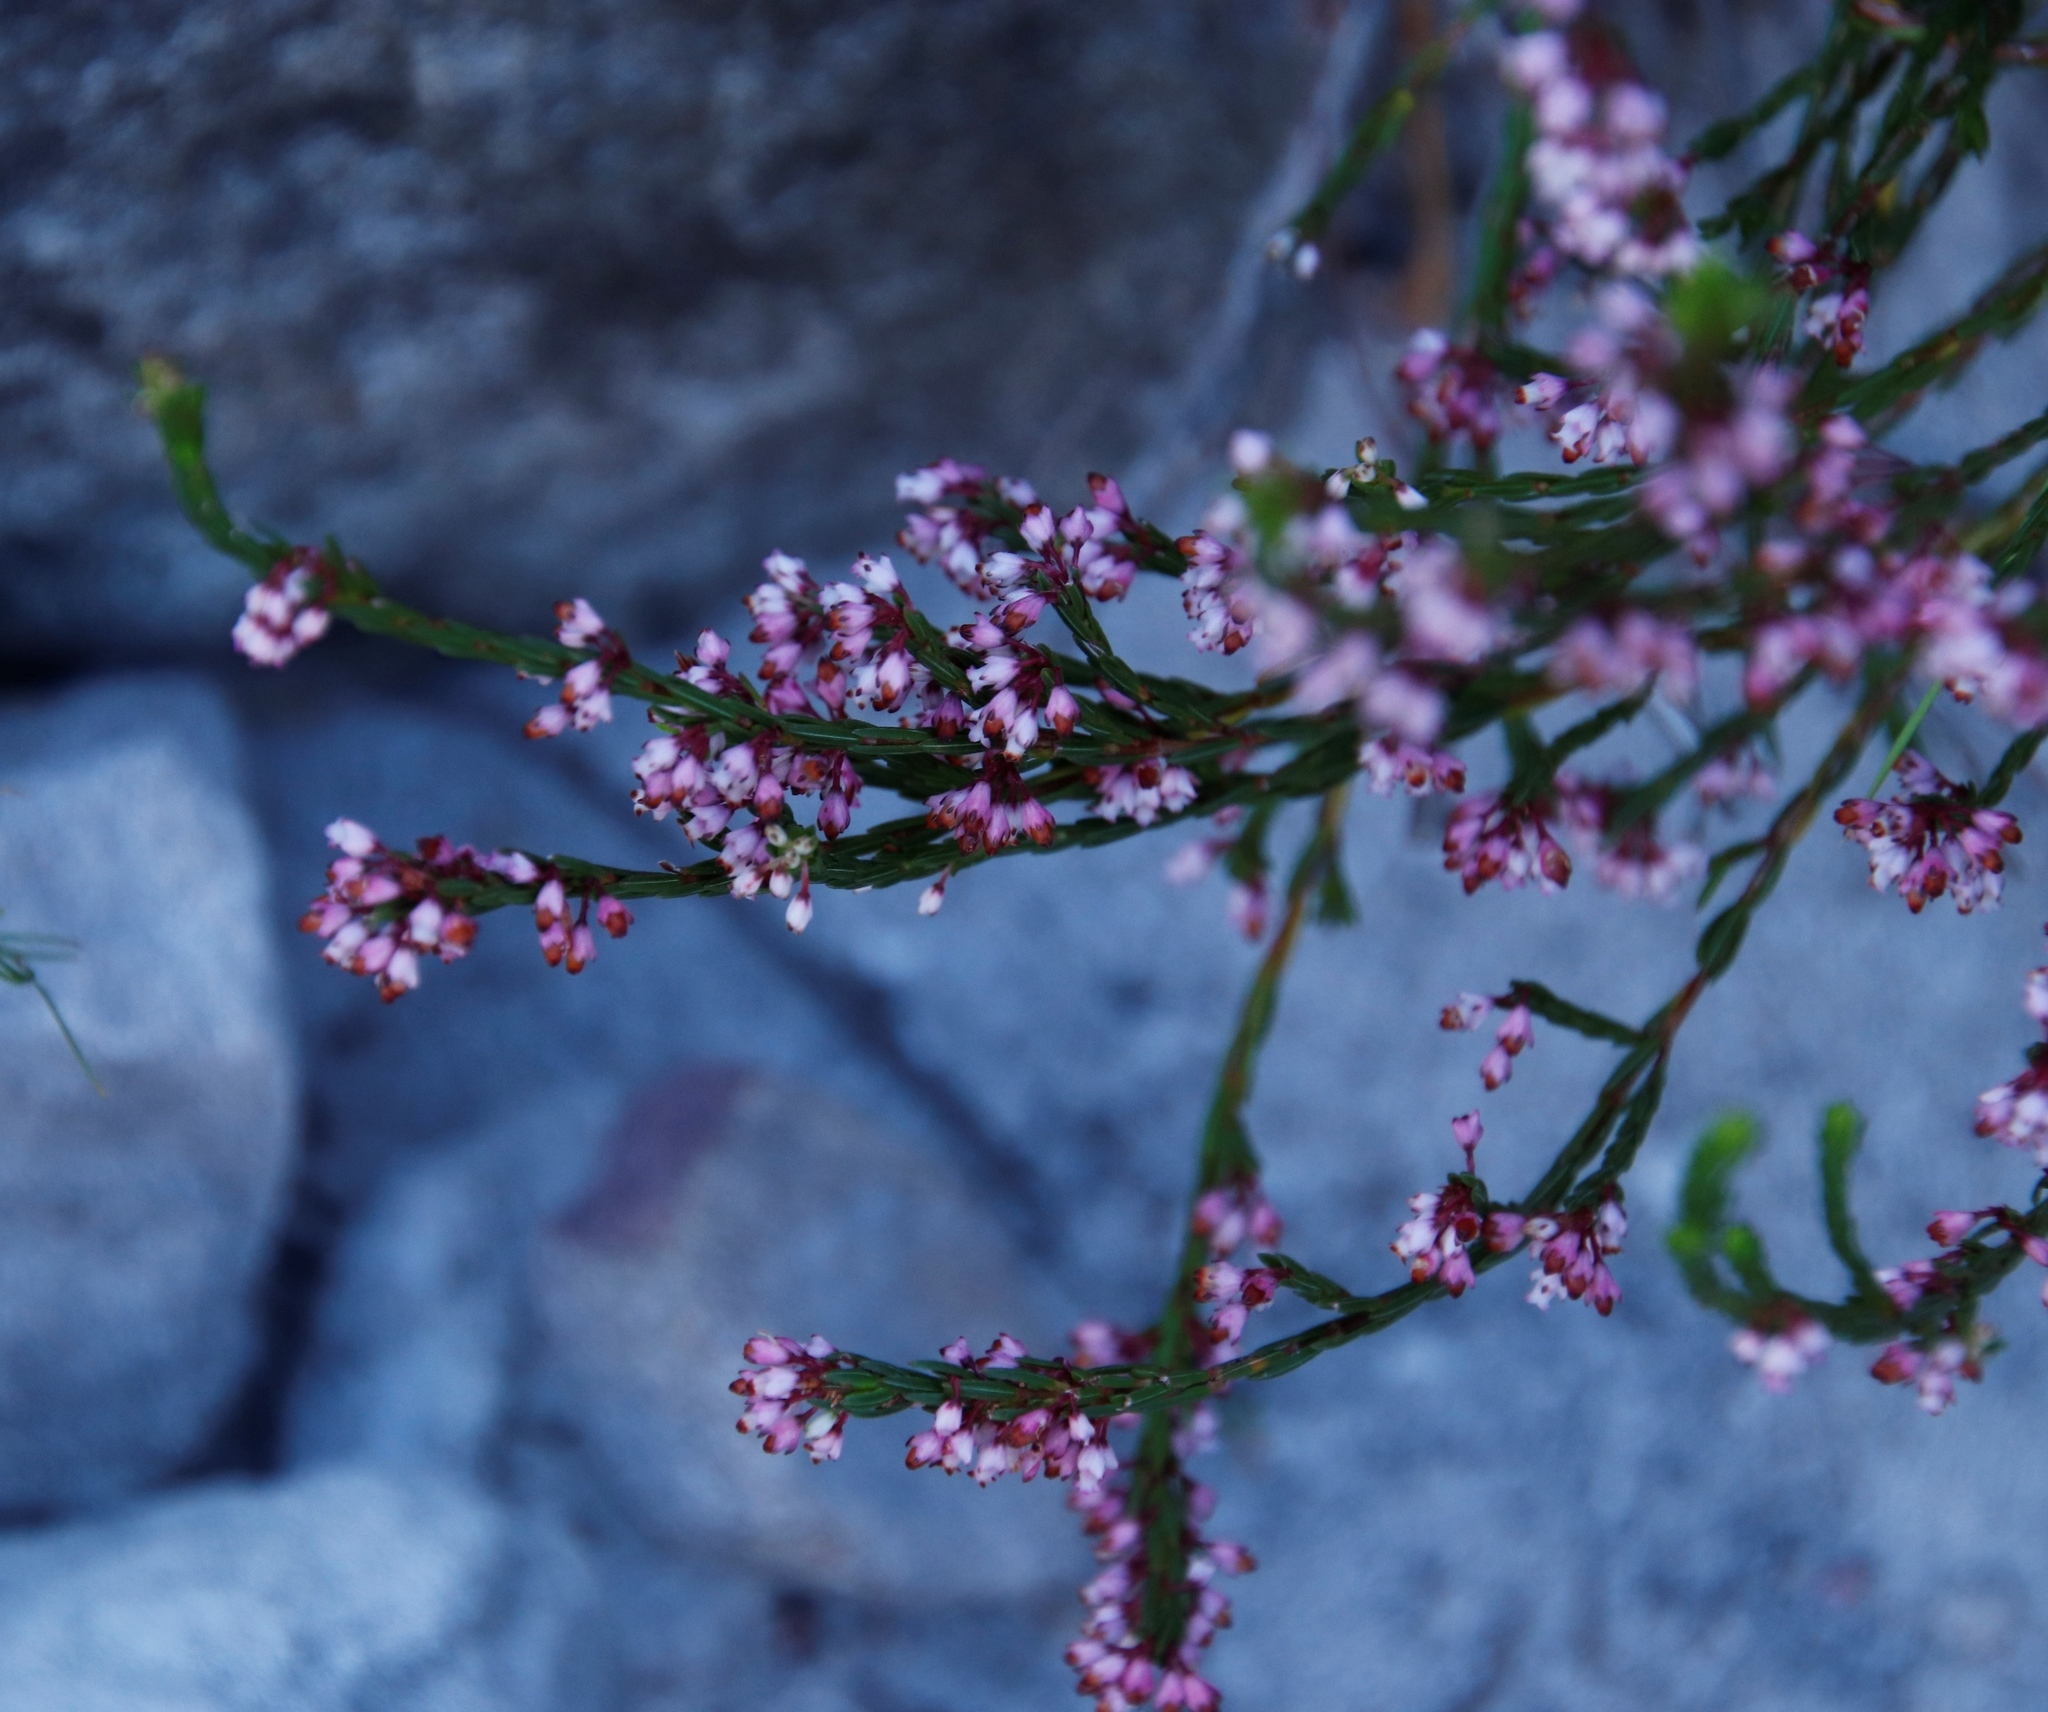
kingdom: Plantae
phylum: Tracheophyta
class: Magnoliopsida
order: Ericales
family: Ericaceae
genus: Erica
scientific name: Erica articularis
